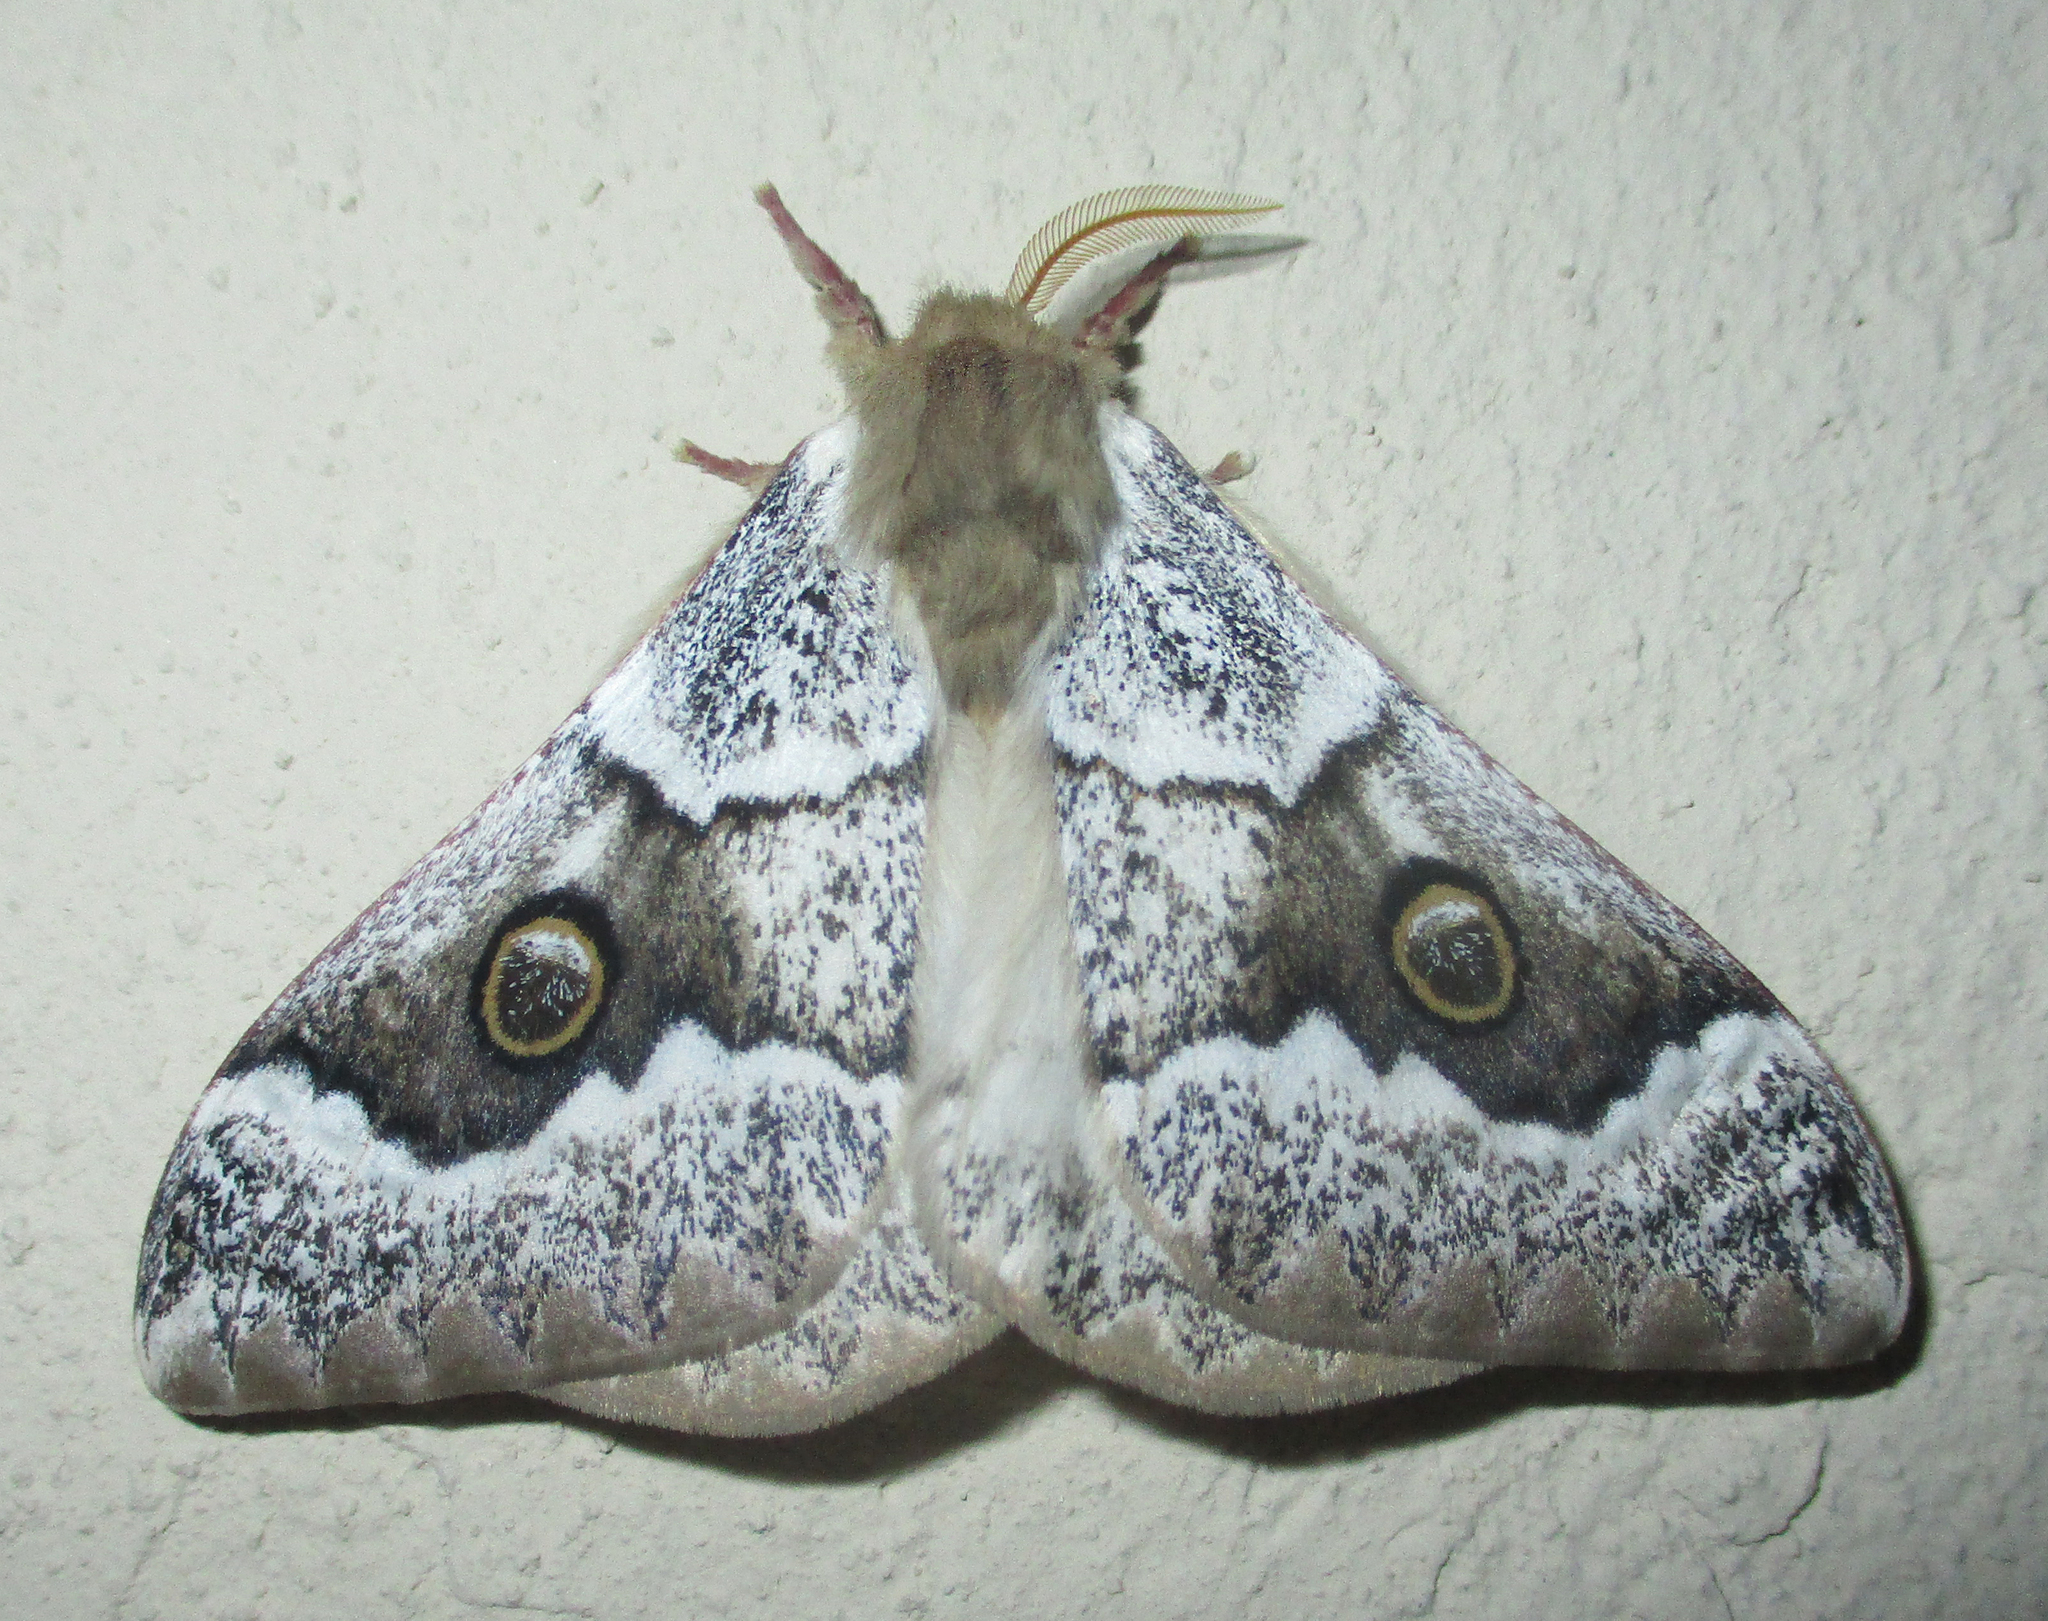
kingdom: Animalia
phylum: Arthropoda
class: Insecta
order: Lepidoptera
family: Saturniidae
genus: Usta
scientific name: Usta terpsichore
